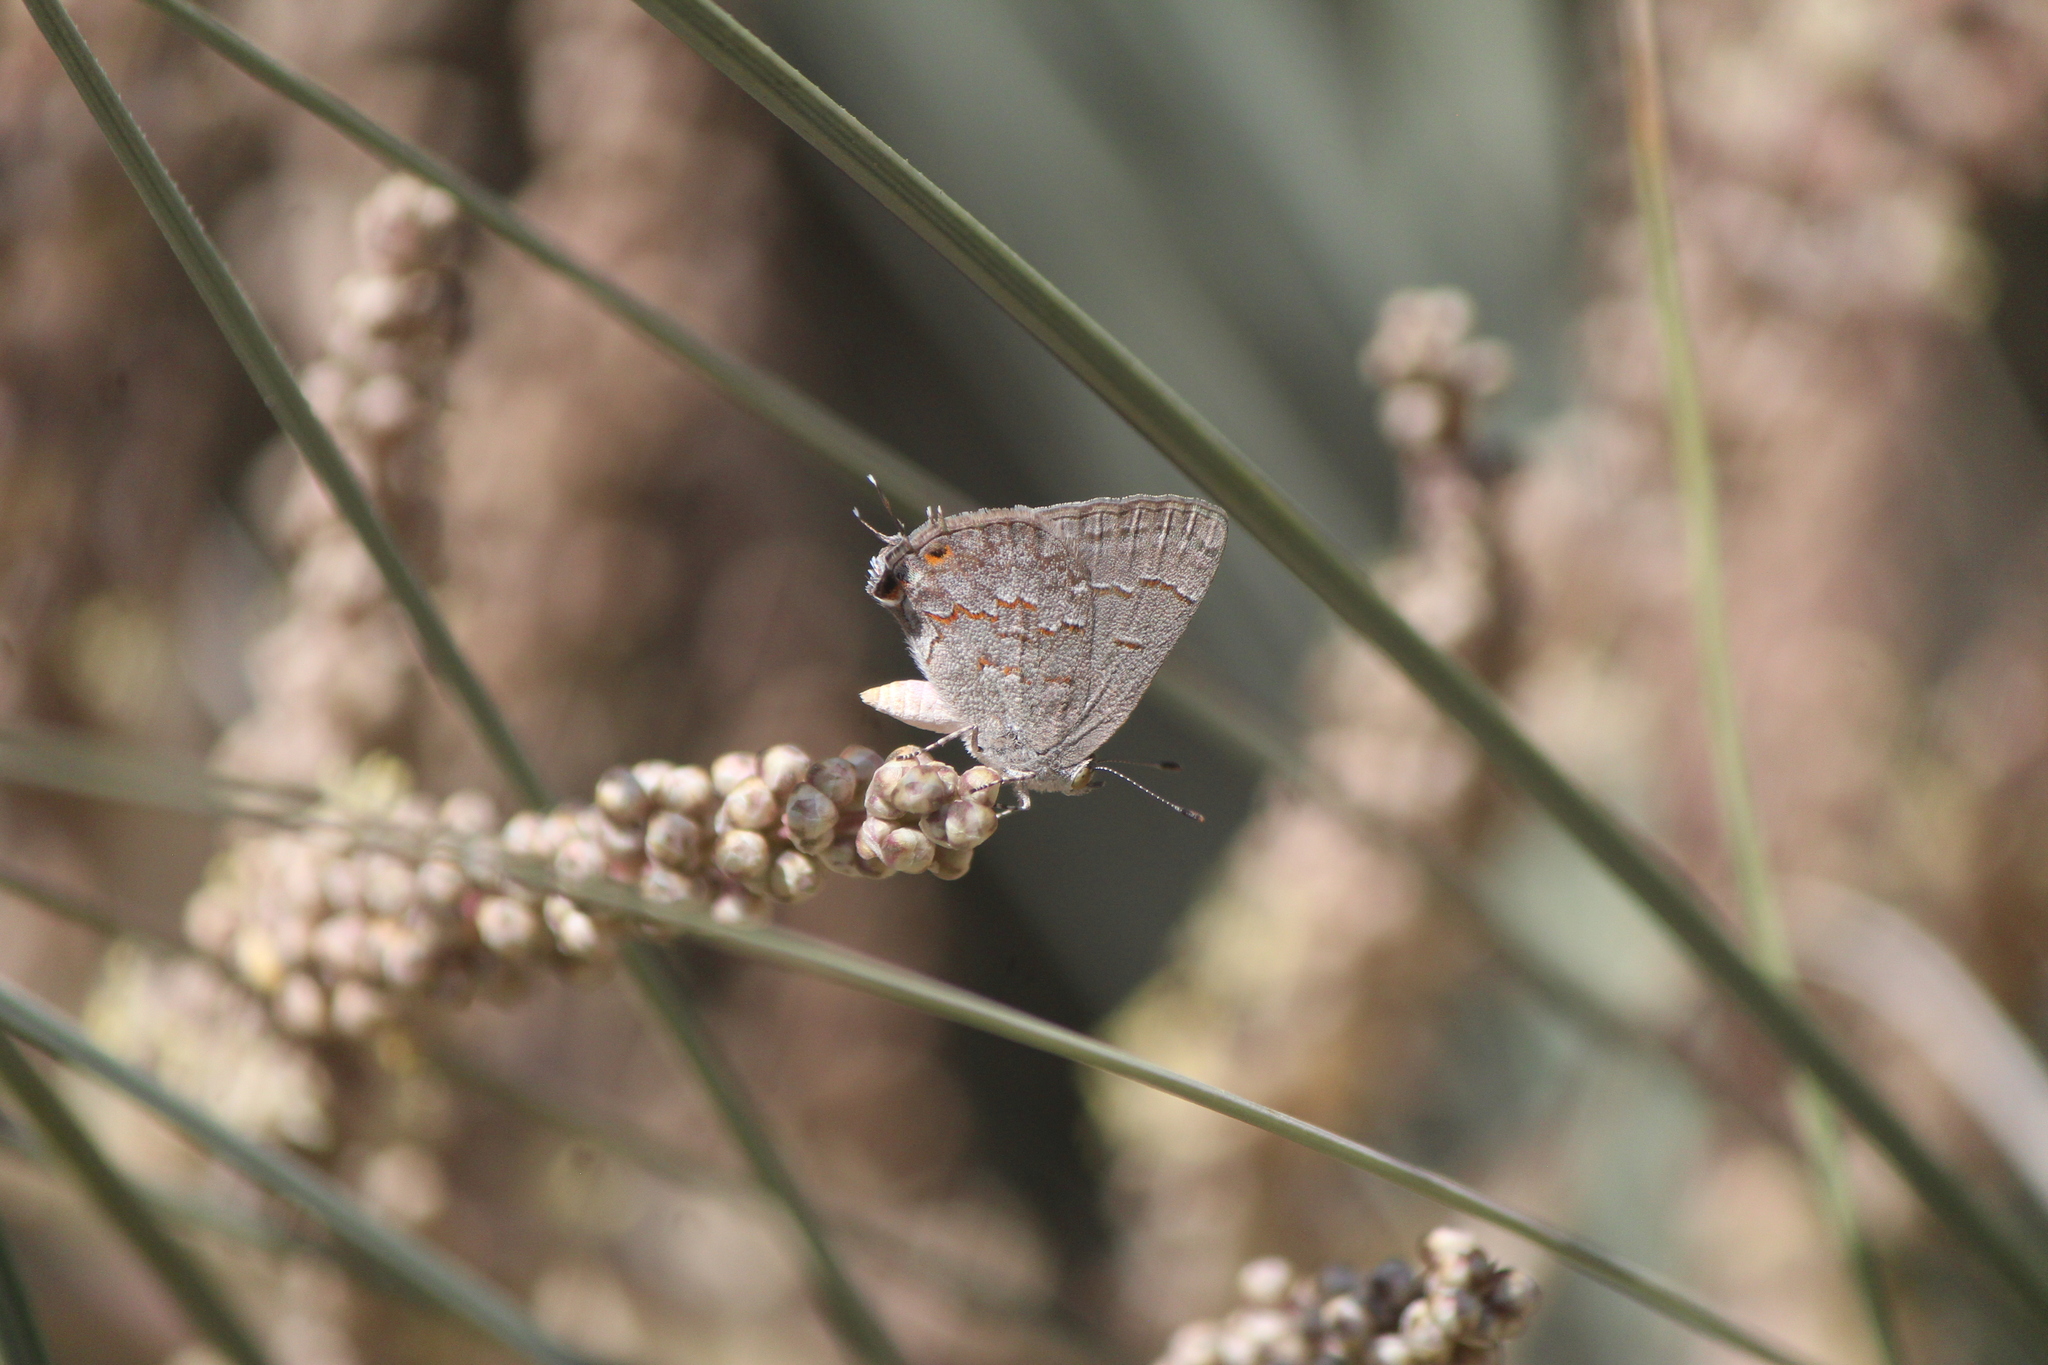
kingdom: Animalia
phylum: Arthropoda
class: Insecta
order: Lepidoptera
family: Lycaenidae
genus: Ministrymon
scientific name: Ministrymon leda
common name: Leda ministreak
